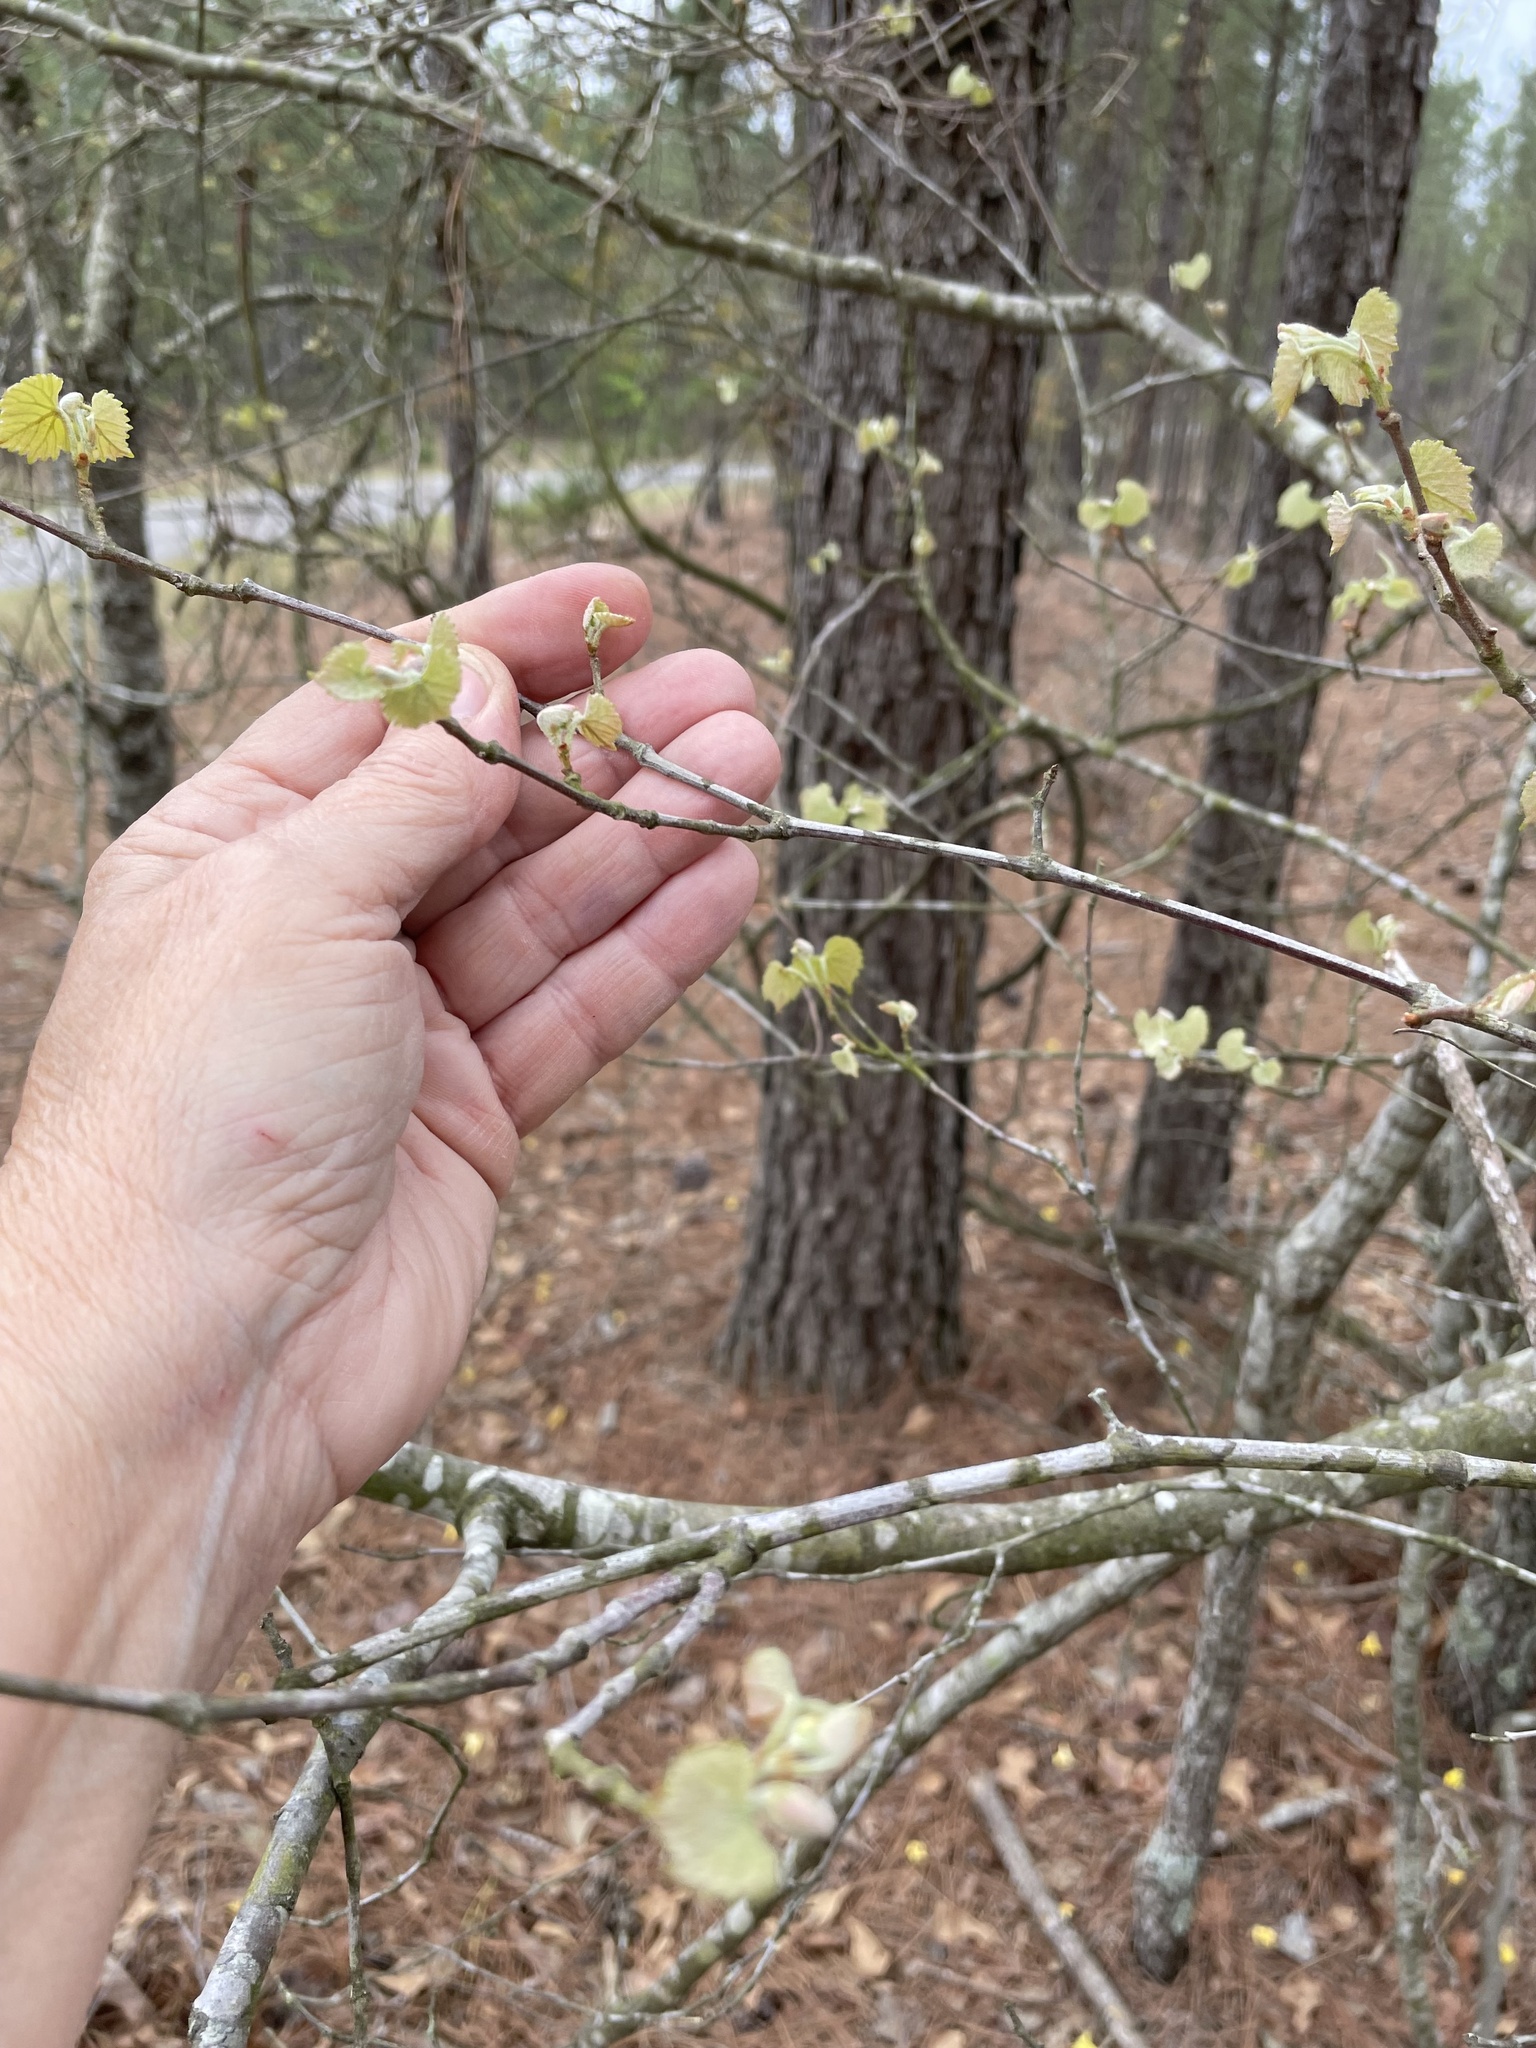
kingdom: Plantae
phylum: Tracheophyta
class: Magnoliopsida
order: Vitales
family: Vitaceae
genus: Vitis
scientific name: Vitis rotundifolia
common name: Muscadine grape
